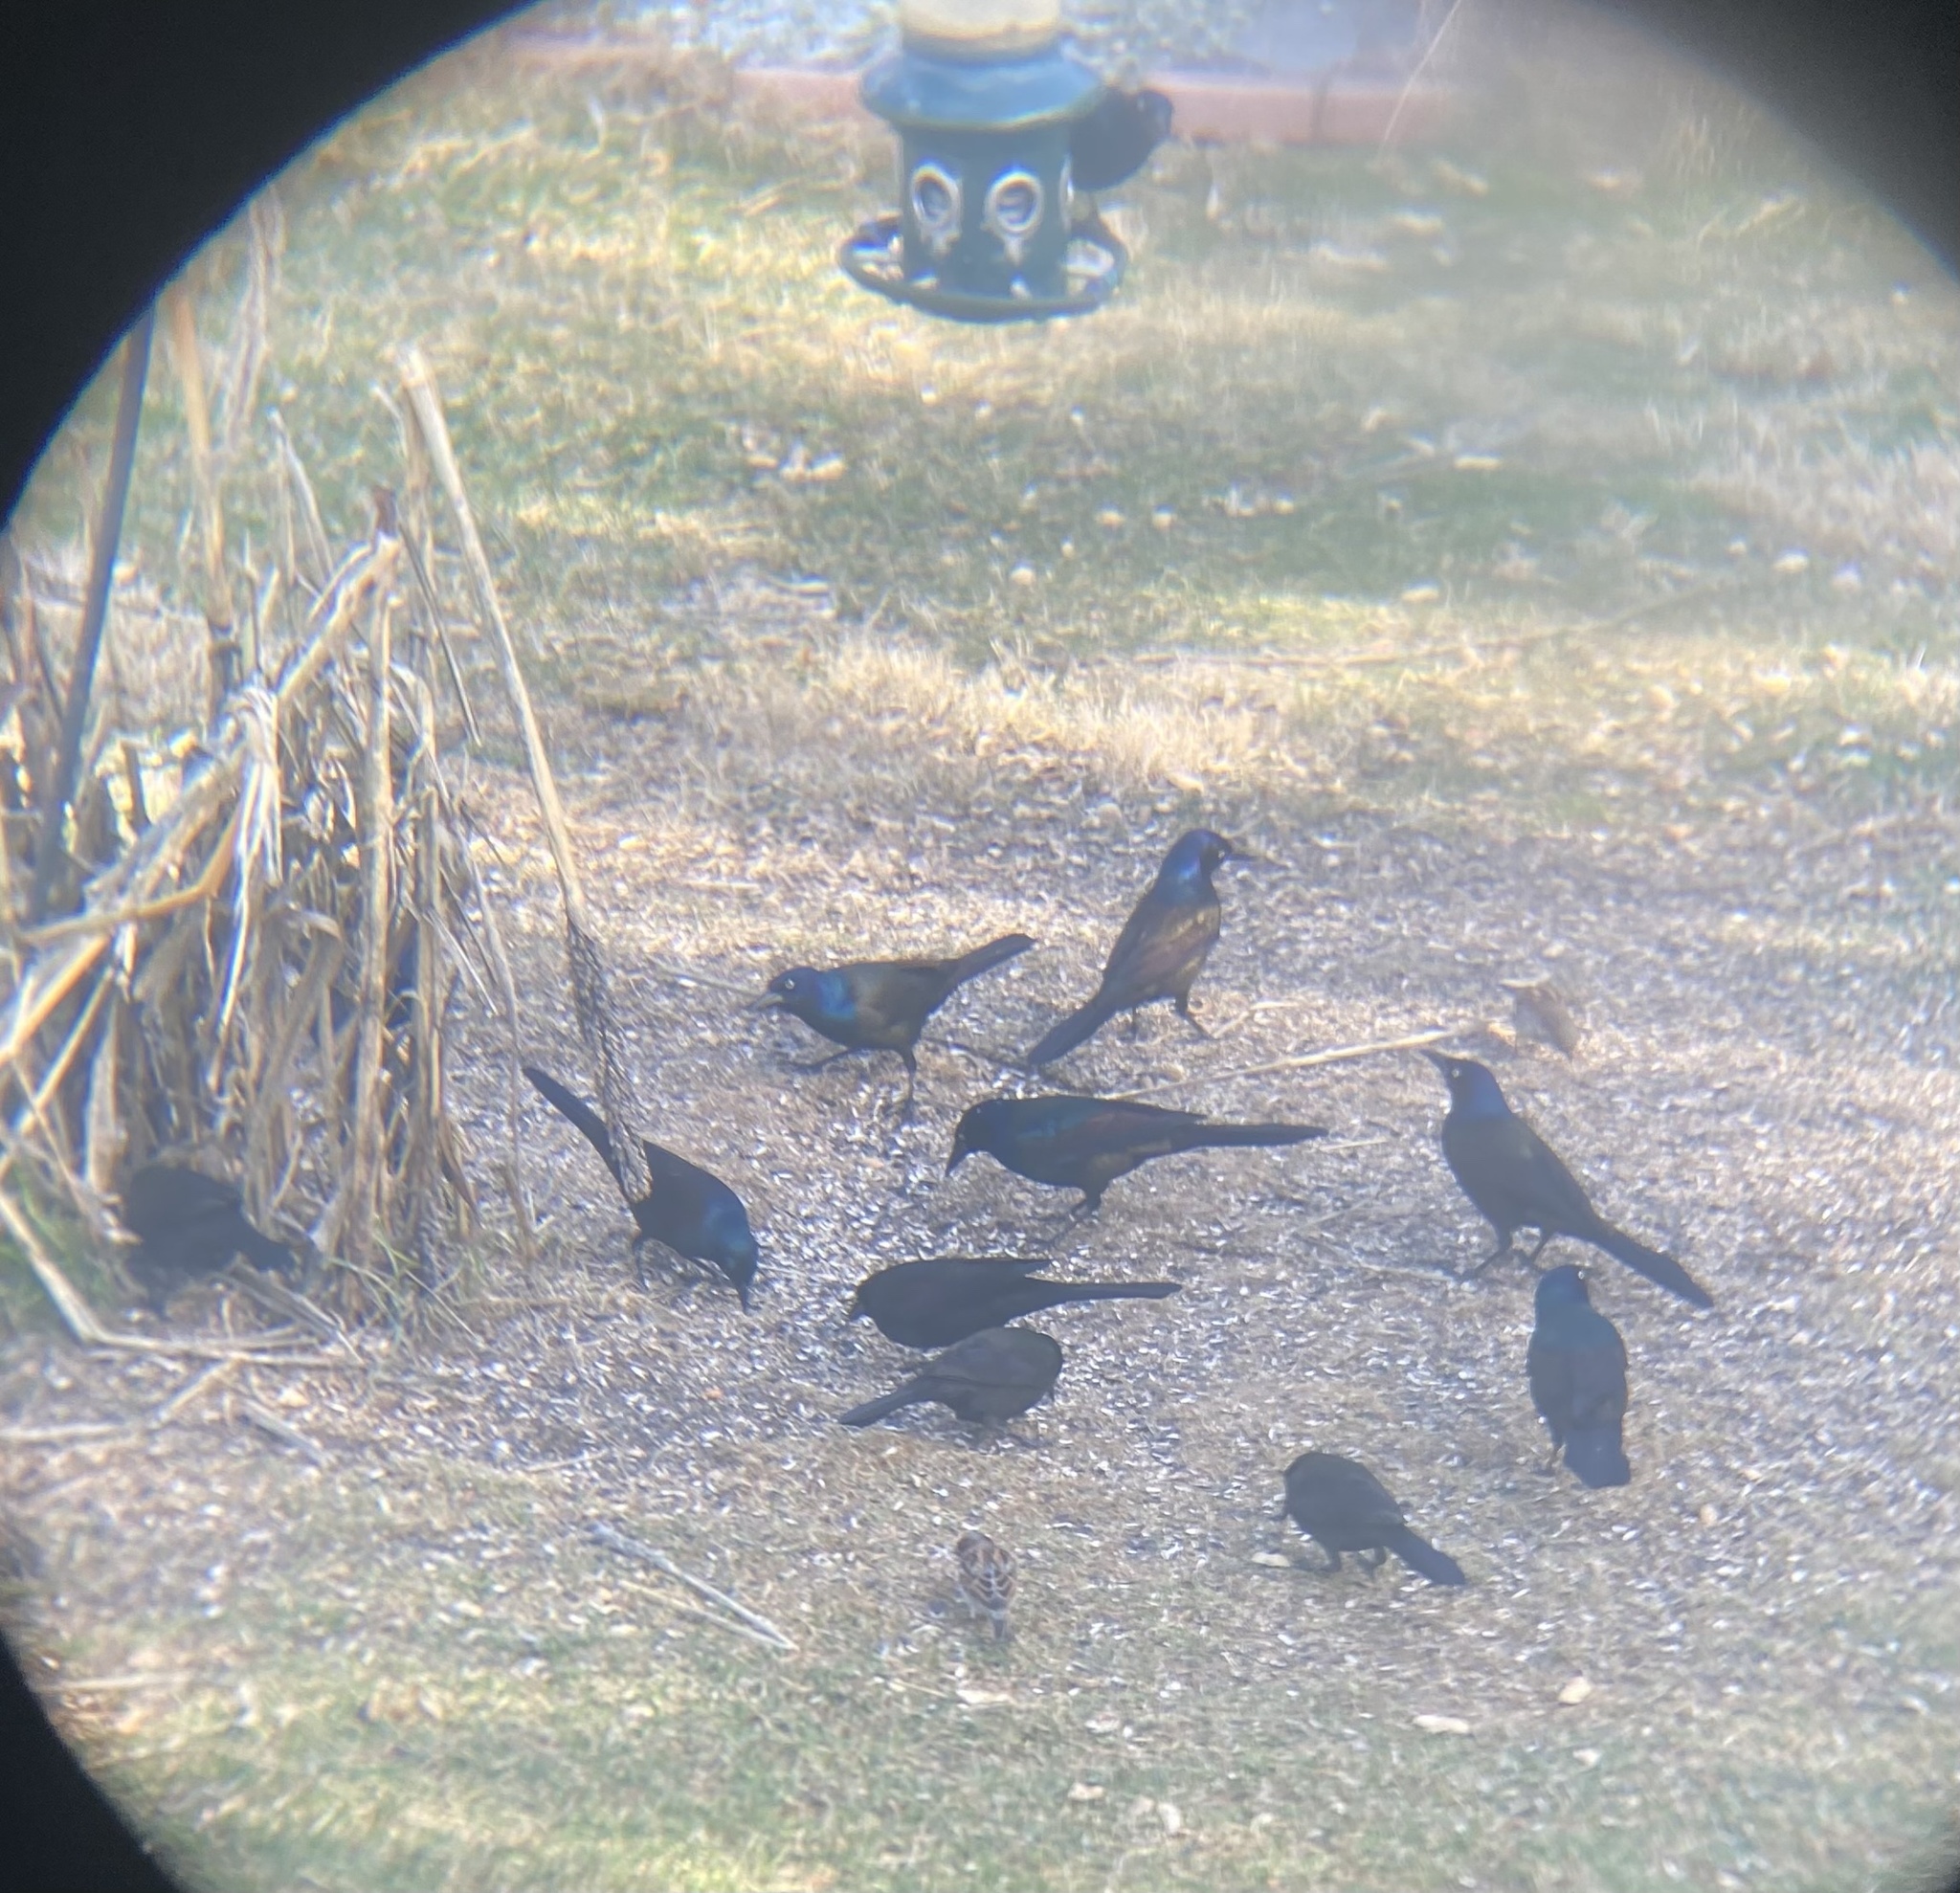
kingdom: Animalia
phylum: Chordata
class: Aves
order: Passeriformes
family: Icteridae
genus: Quiscalus
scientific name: Quiscalus quiscula
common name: Common grackle
